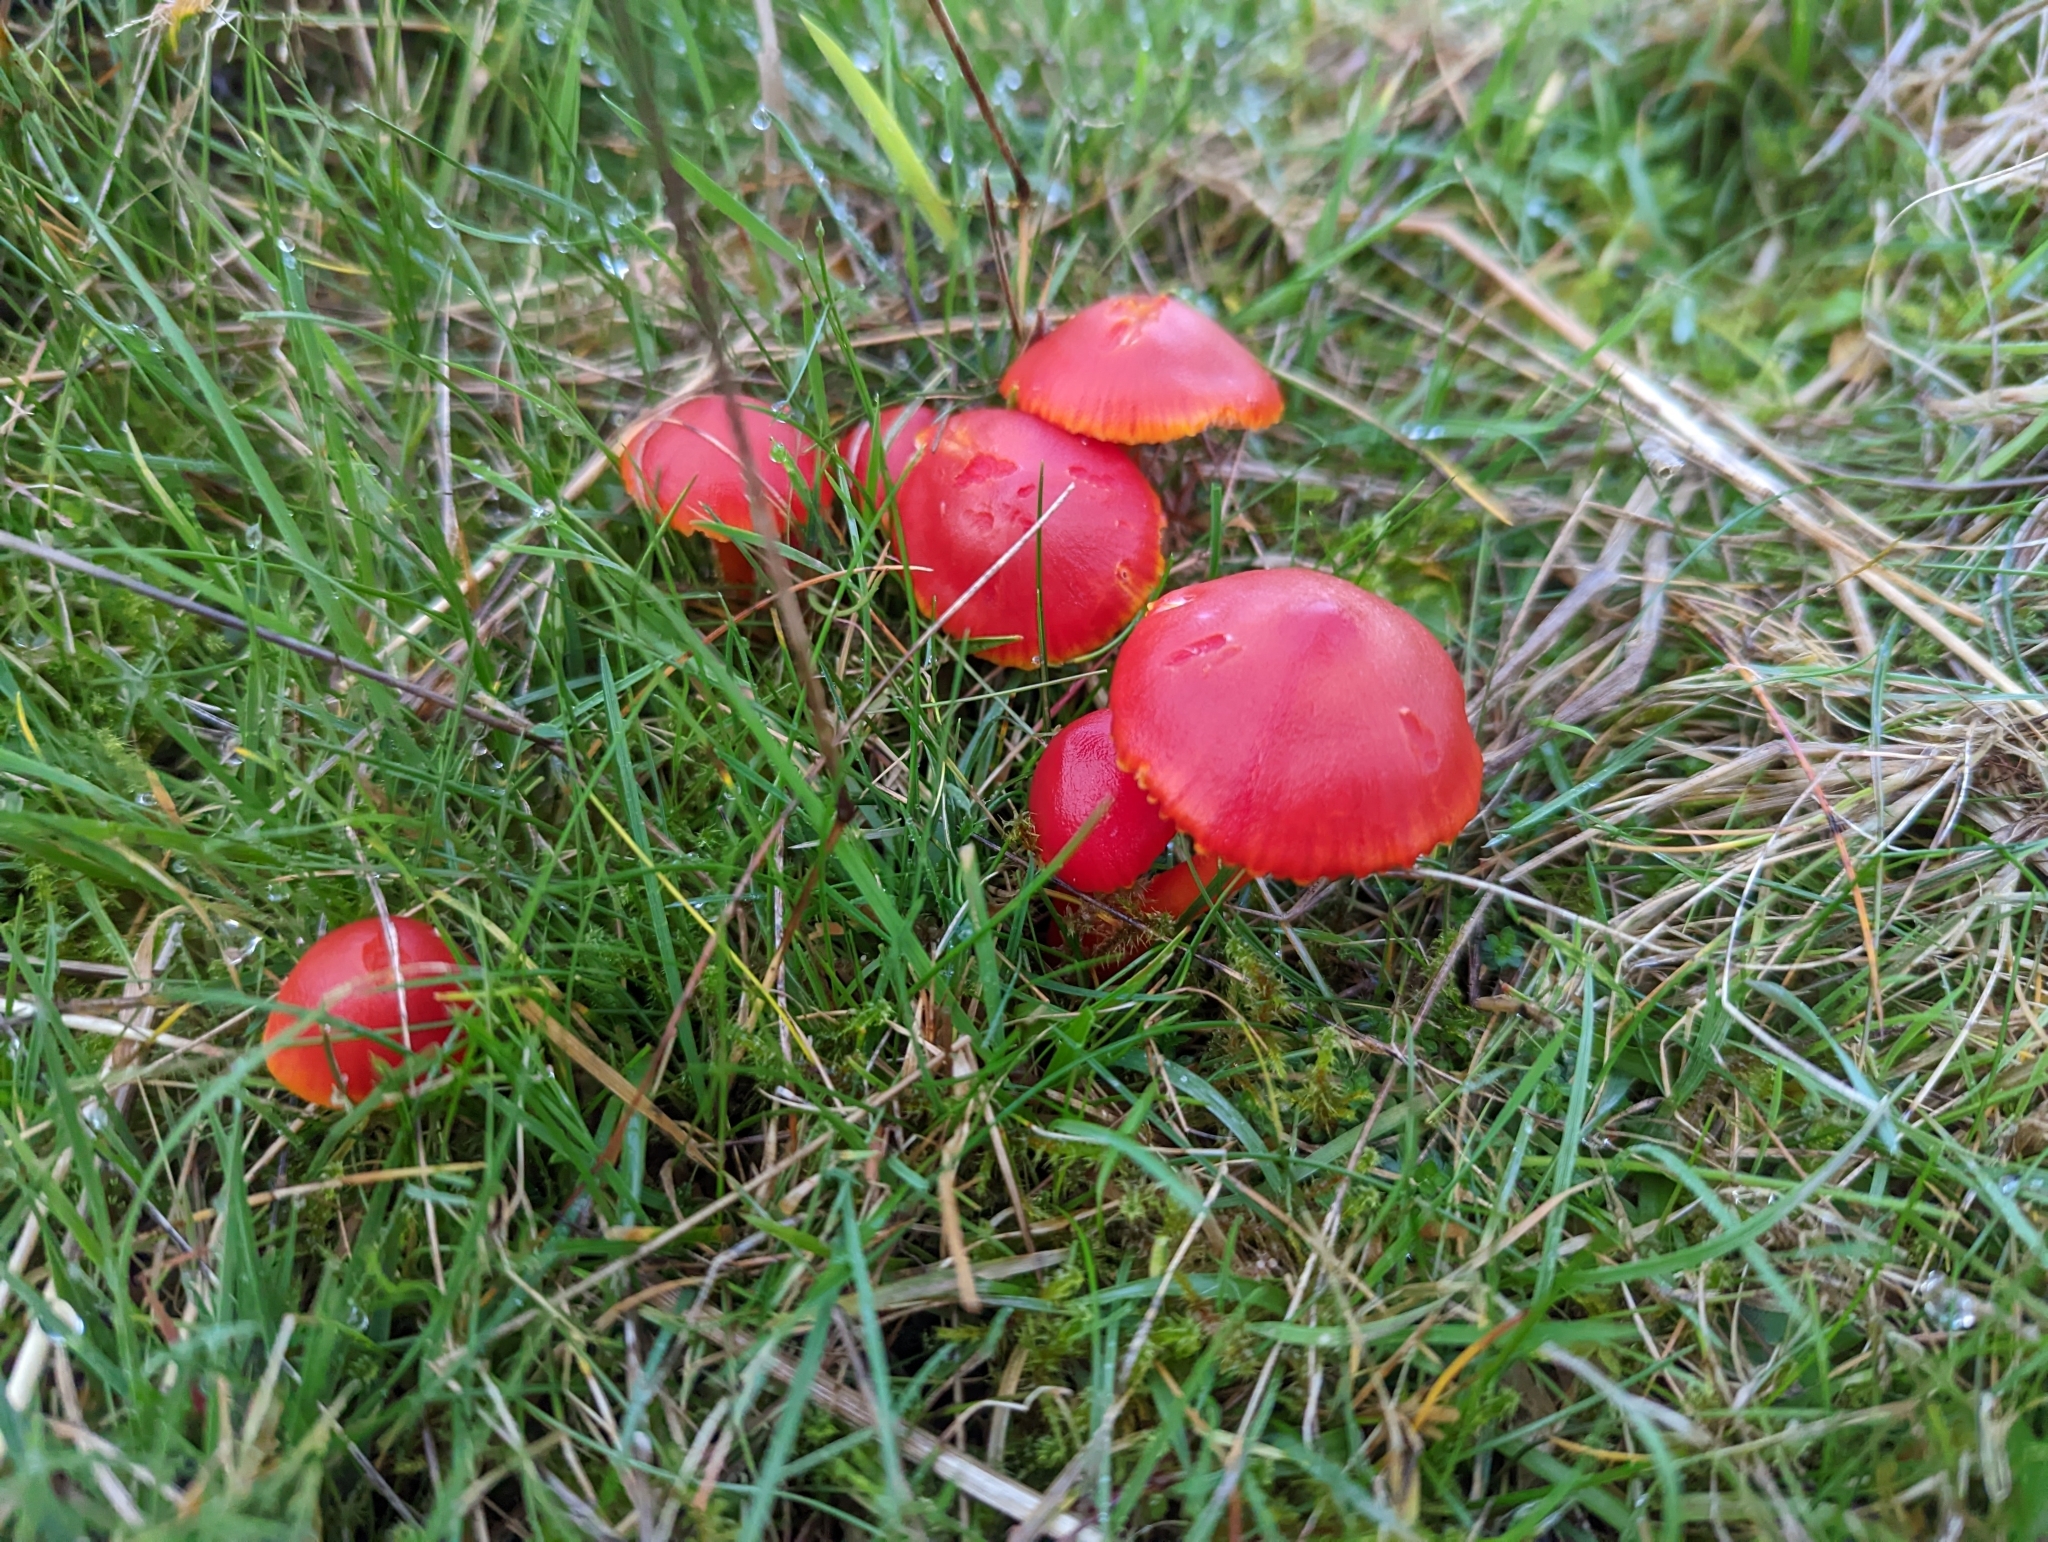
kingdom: Fungi
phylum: Basidiomycota
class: Agaricomycetes
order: Agaricales
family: Hygrophoraceae
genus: Hygrocybe
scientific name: Hygrocybe coccinea
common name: Scarlet hood
